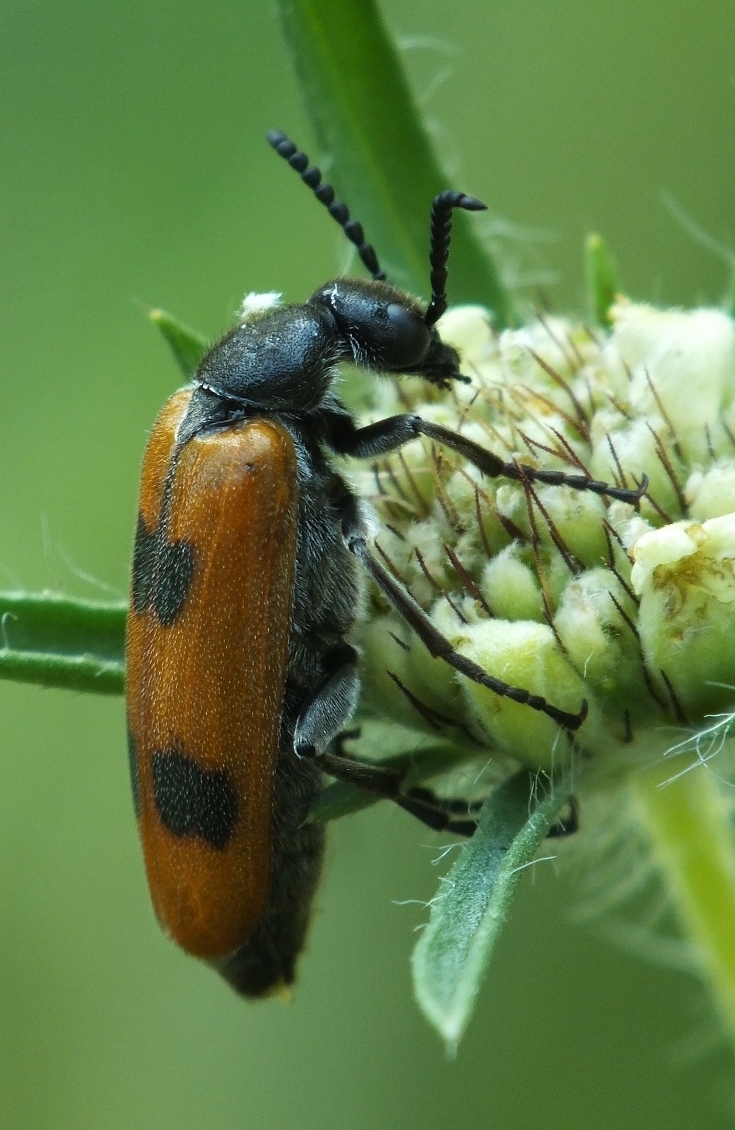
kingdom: Animalia
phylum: Arthropoda
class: Insecta
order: Coleoptera
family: Meloidae
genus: Lydus
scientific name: Lydus trimaculatus
